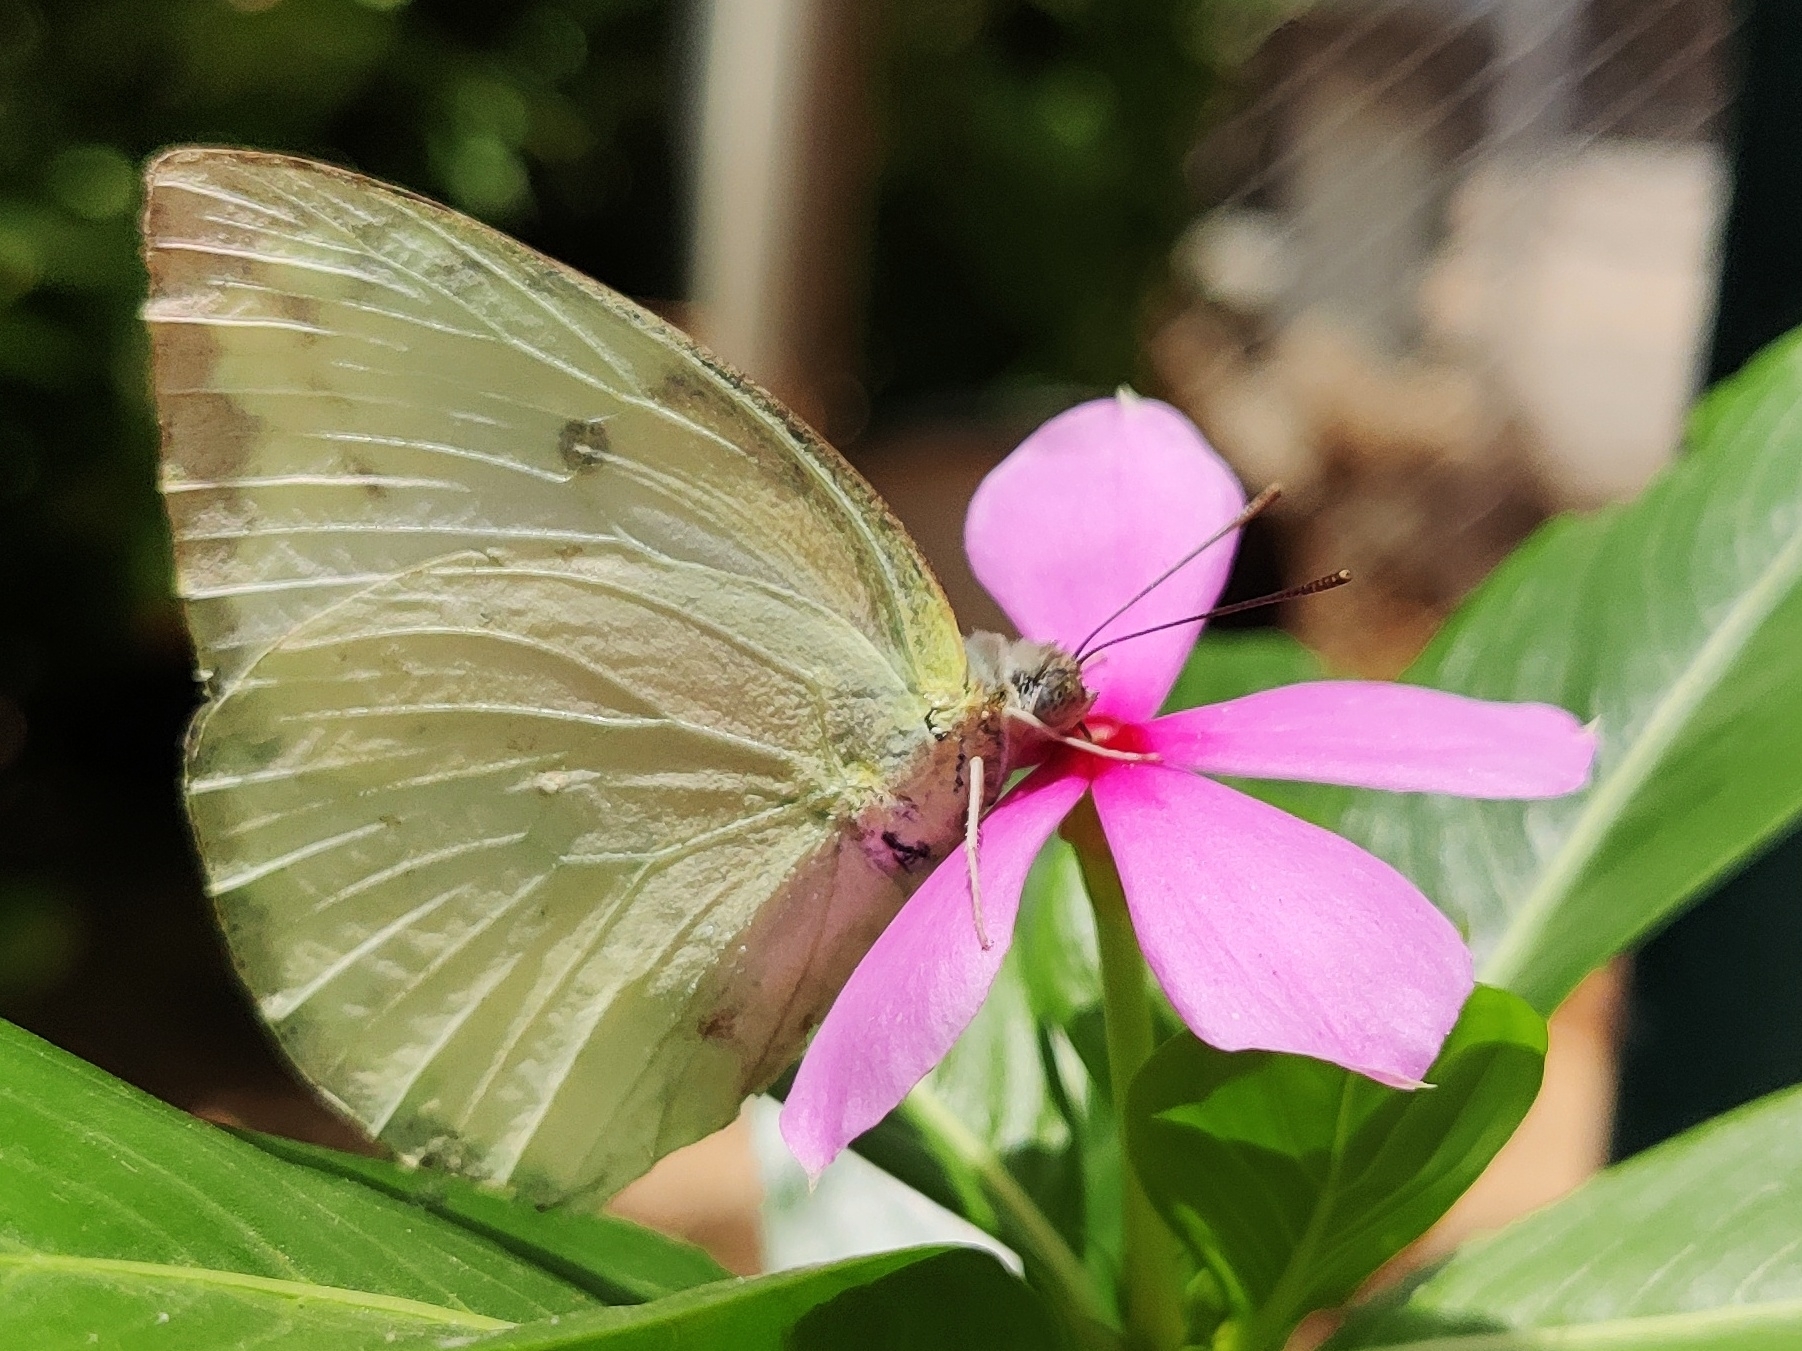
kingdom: Animalia
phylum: Arthropoda
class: Insecta
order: Lepidoptera
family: Pieridae
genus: Catopsilia
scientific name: Catopsilia pomona
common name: Common emigrant
